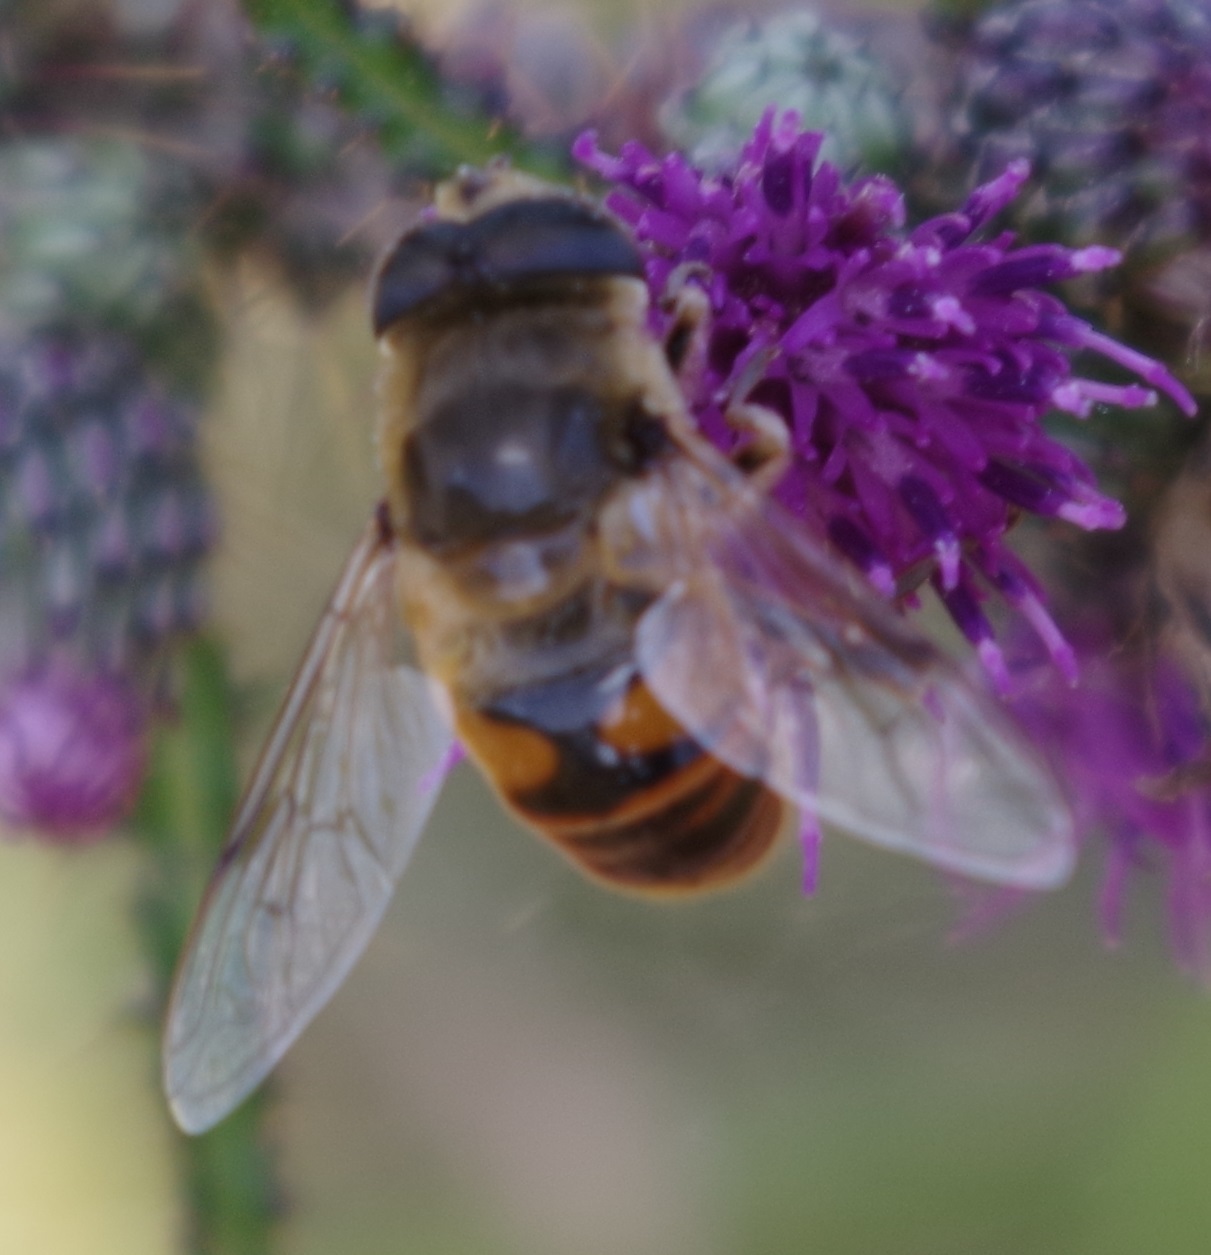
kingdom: Animalia
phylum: Arthropoda
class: Insecta
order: Diptera
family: Syrphidae
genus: Eristalis
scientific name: Eristalis tenax
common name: Drone fly
